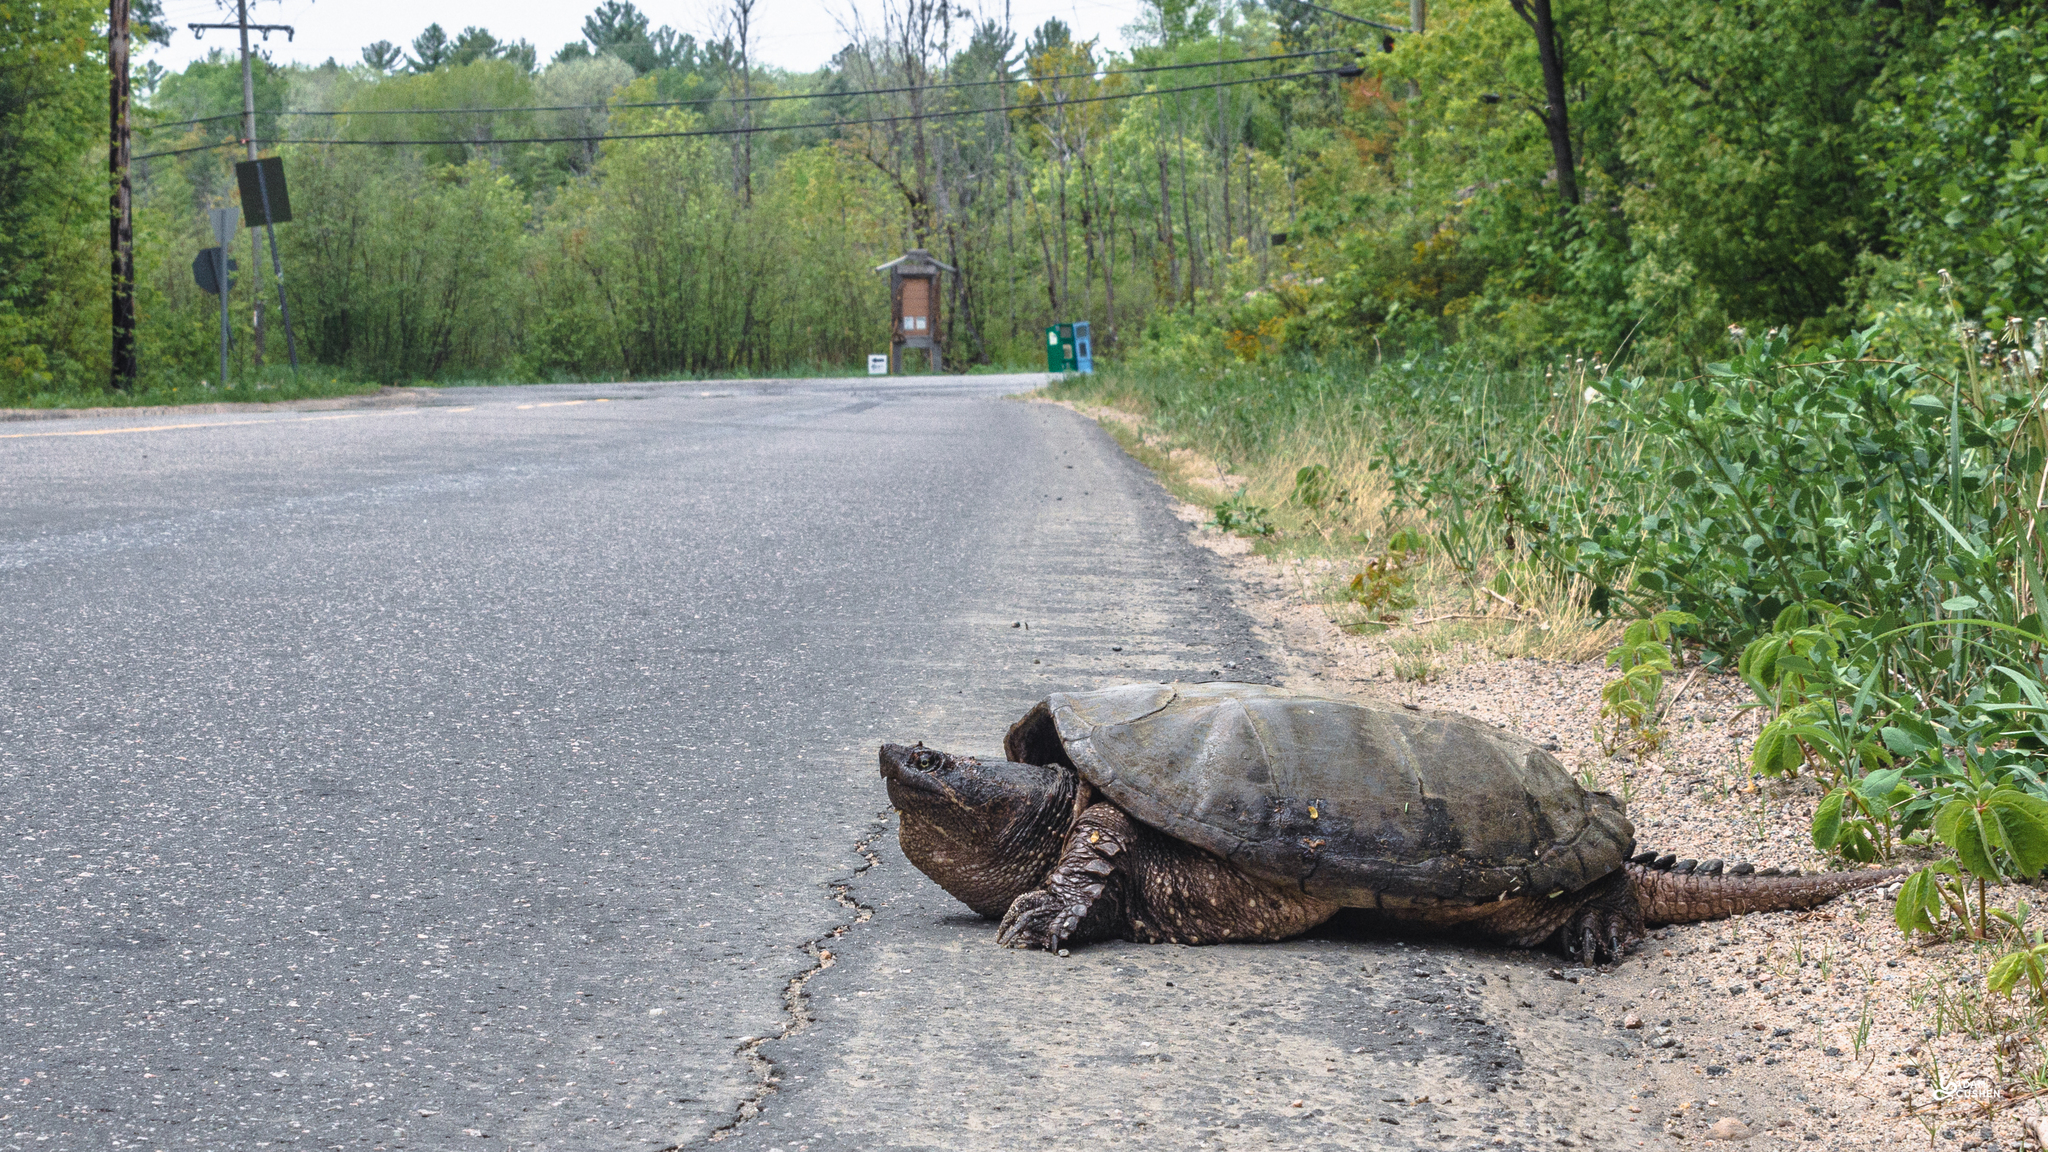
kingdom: Animalia
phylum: Chordata
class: Testudines
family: Chelydridae
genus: Chelydra
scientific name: Chelydra serpentina
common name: Common snapping turtle
